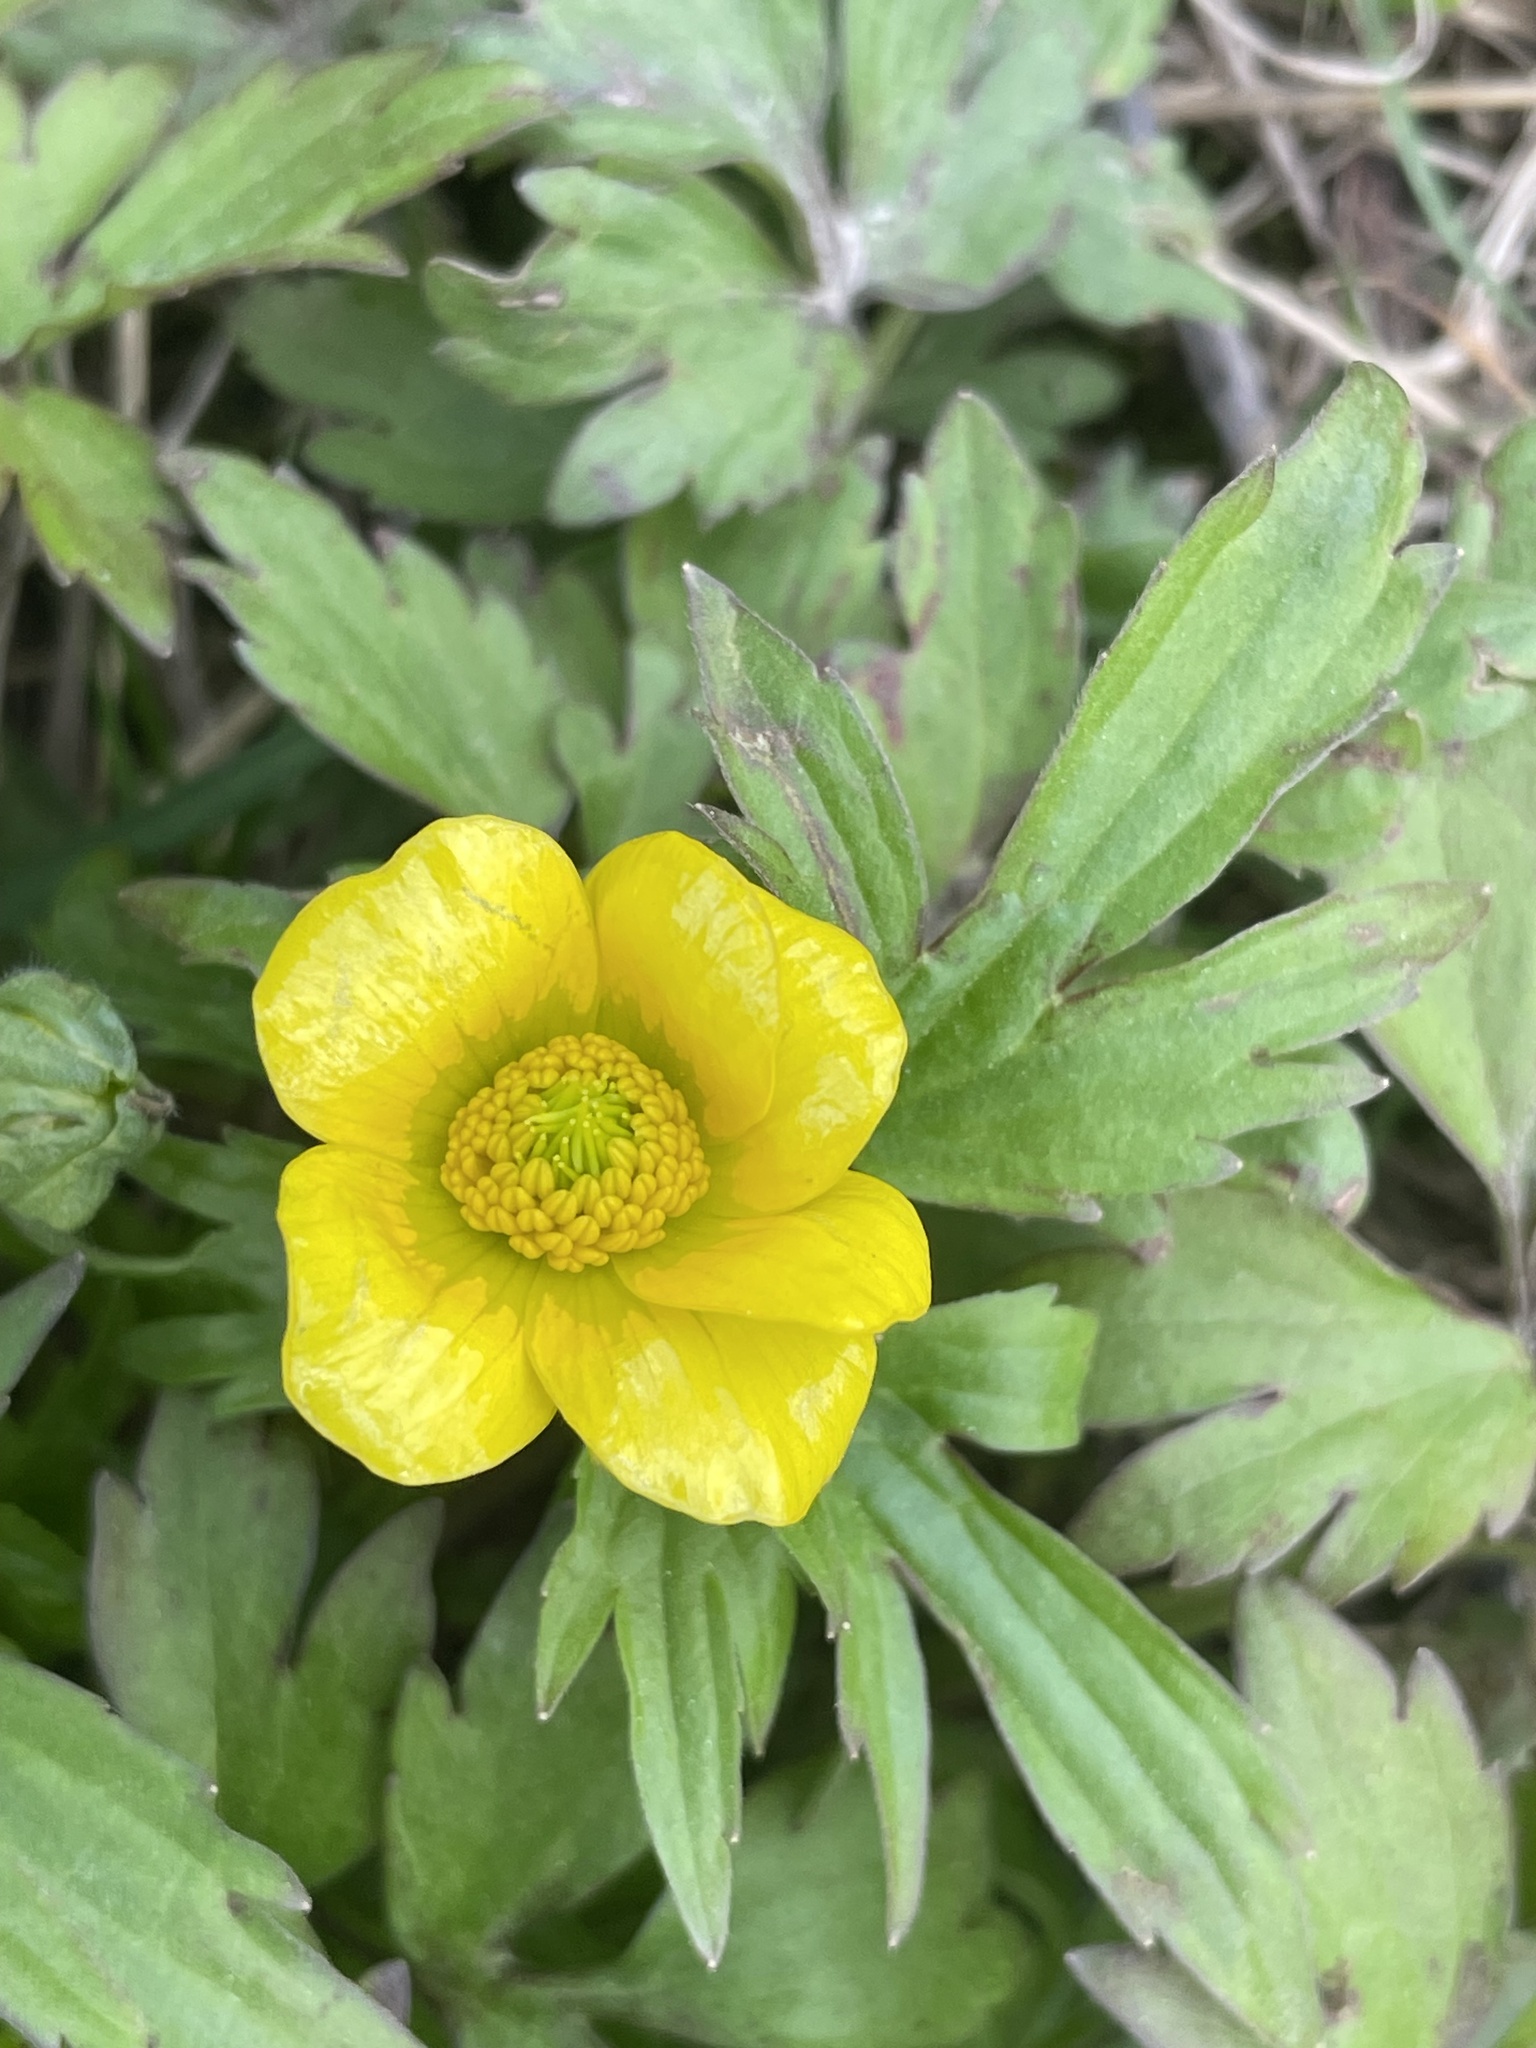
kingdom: Plantae
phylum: Tracheophyta
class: Magnoliopsida
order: Ranunculales
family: Ranunculaceae
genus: Ranunculus
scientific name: Ranunculus hispidus
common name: Bristly buttercup
